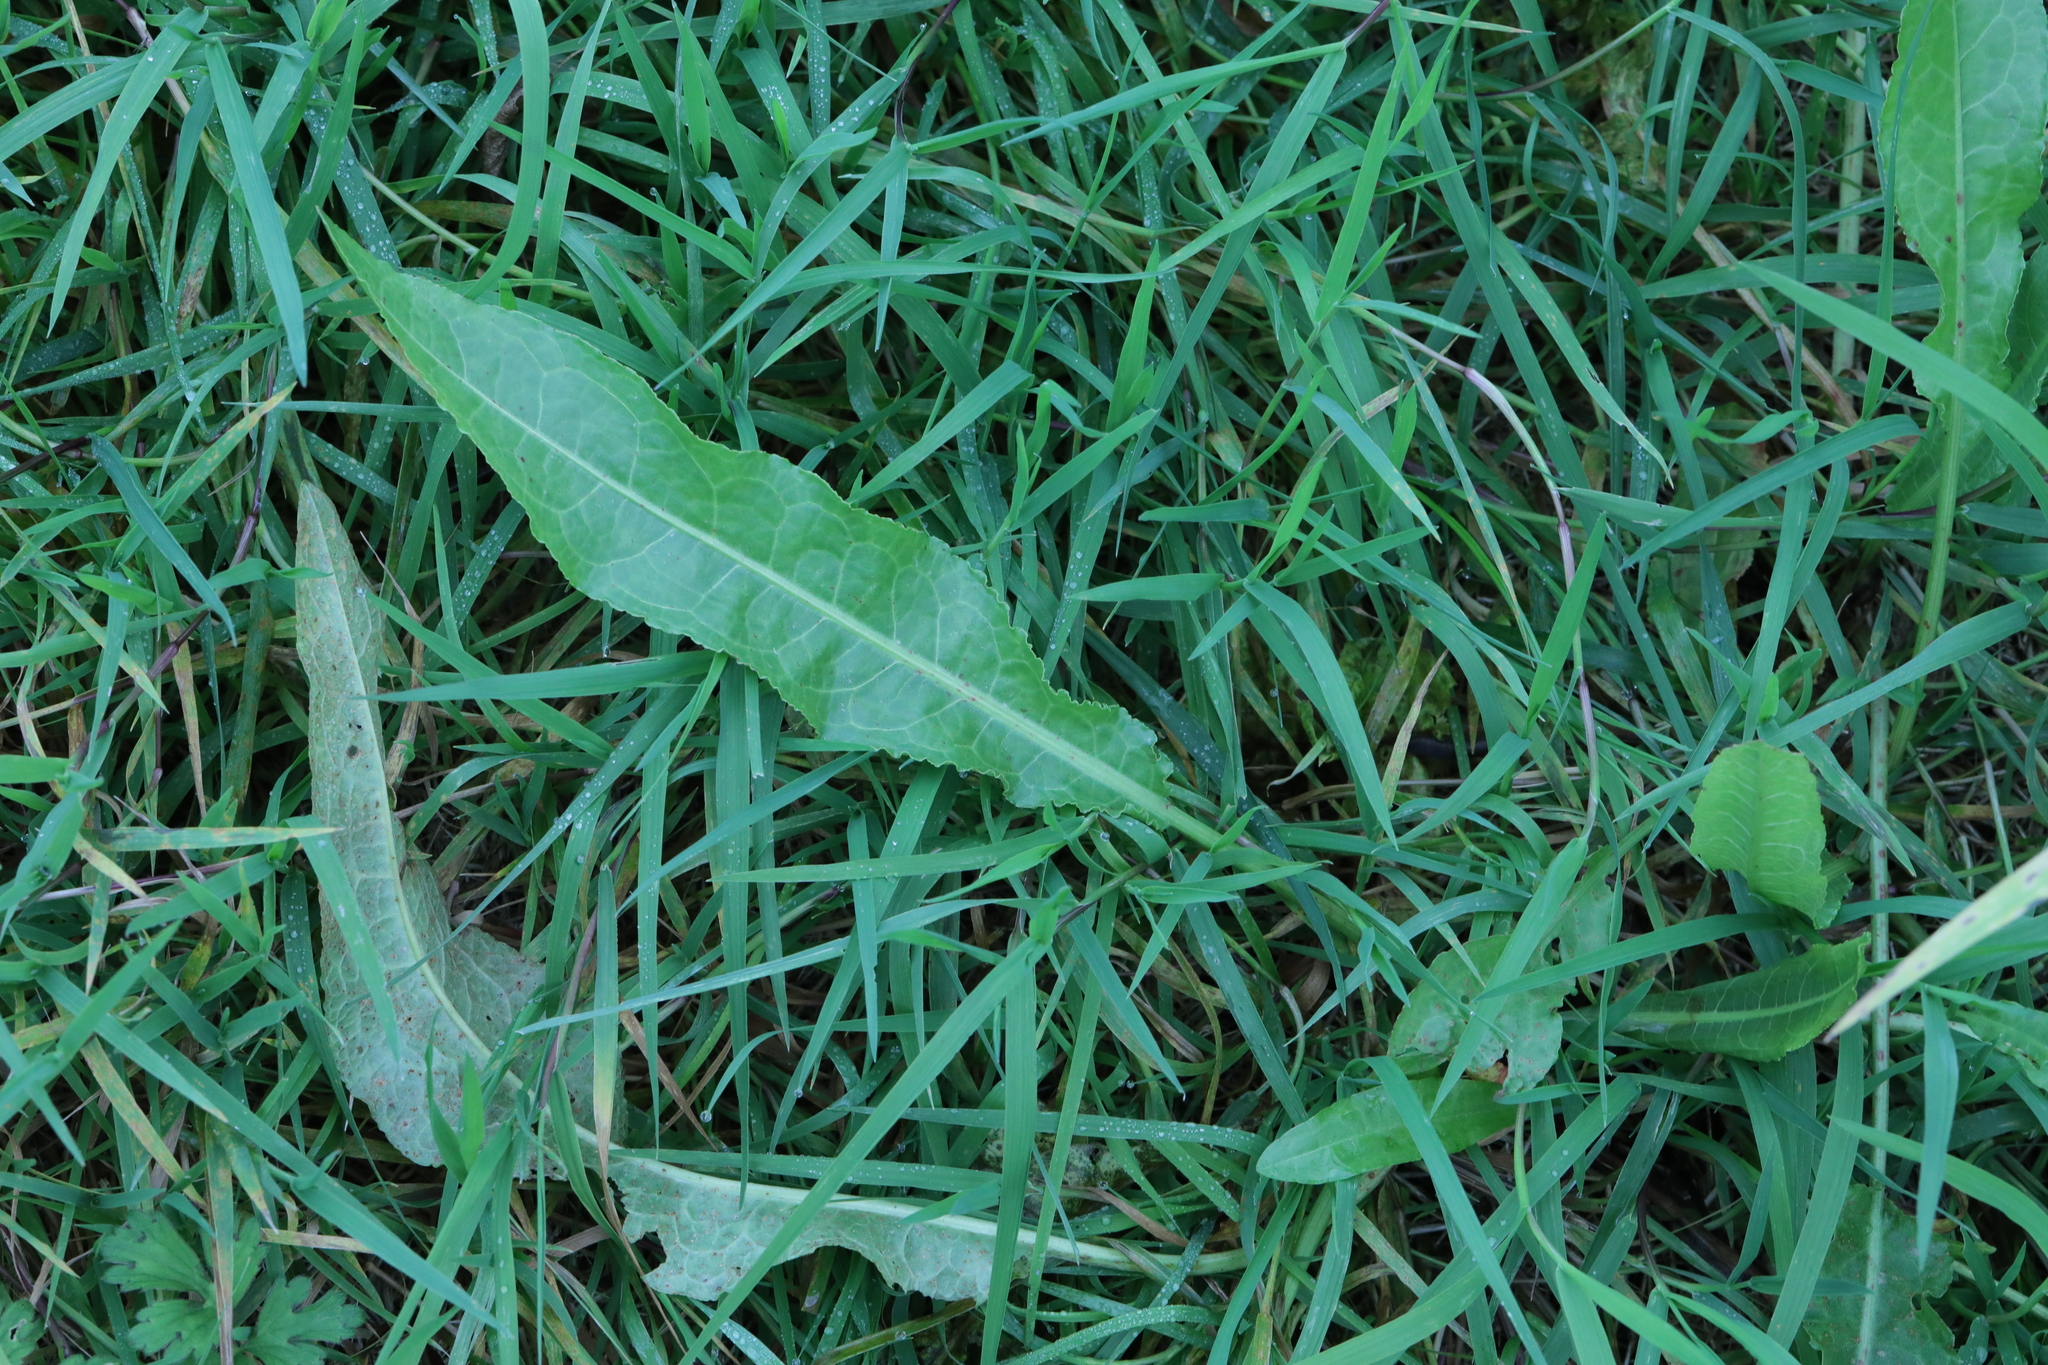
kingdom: Plantae
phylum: Tracheophyta
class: Magnoliopsida
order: Caryophyllales
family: Polygonaceae
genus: Rumex
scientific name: Rumex crispus
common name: Curled dock
